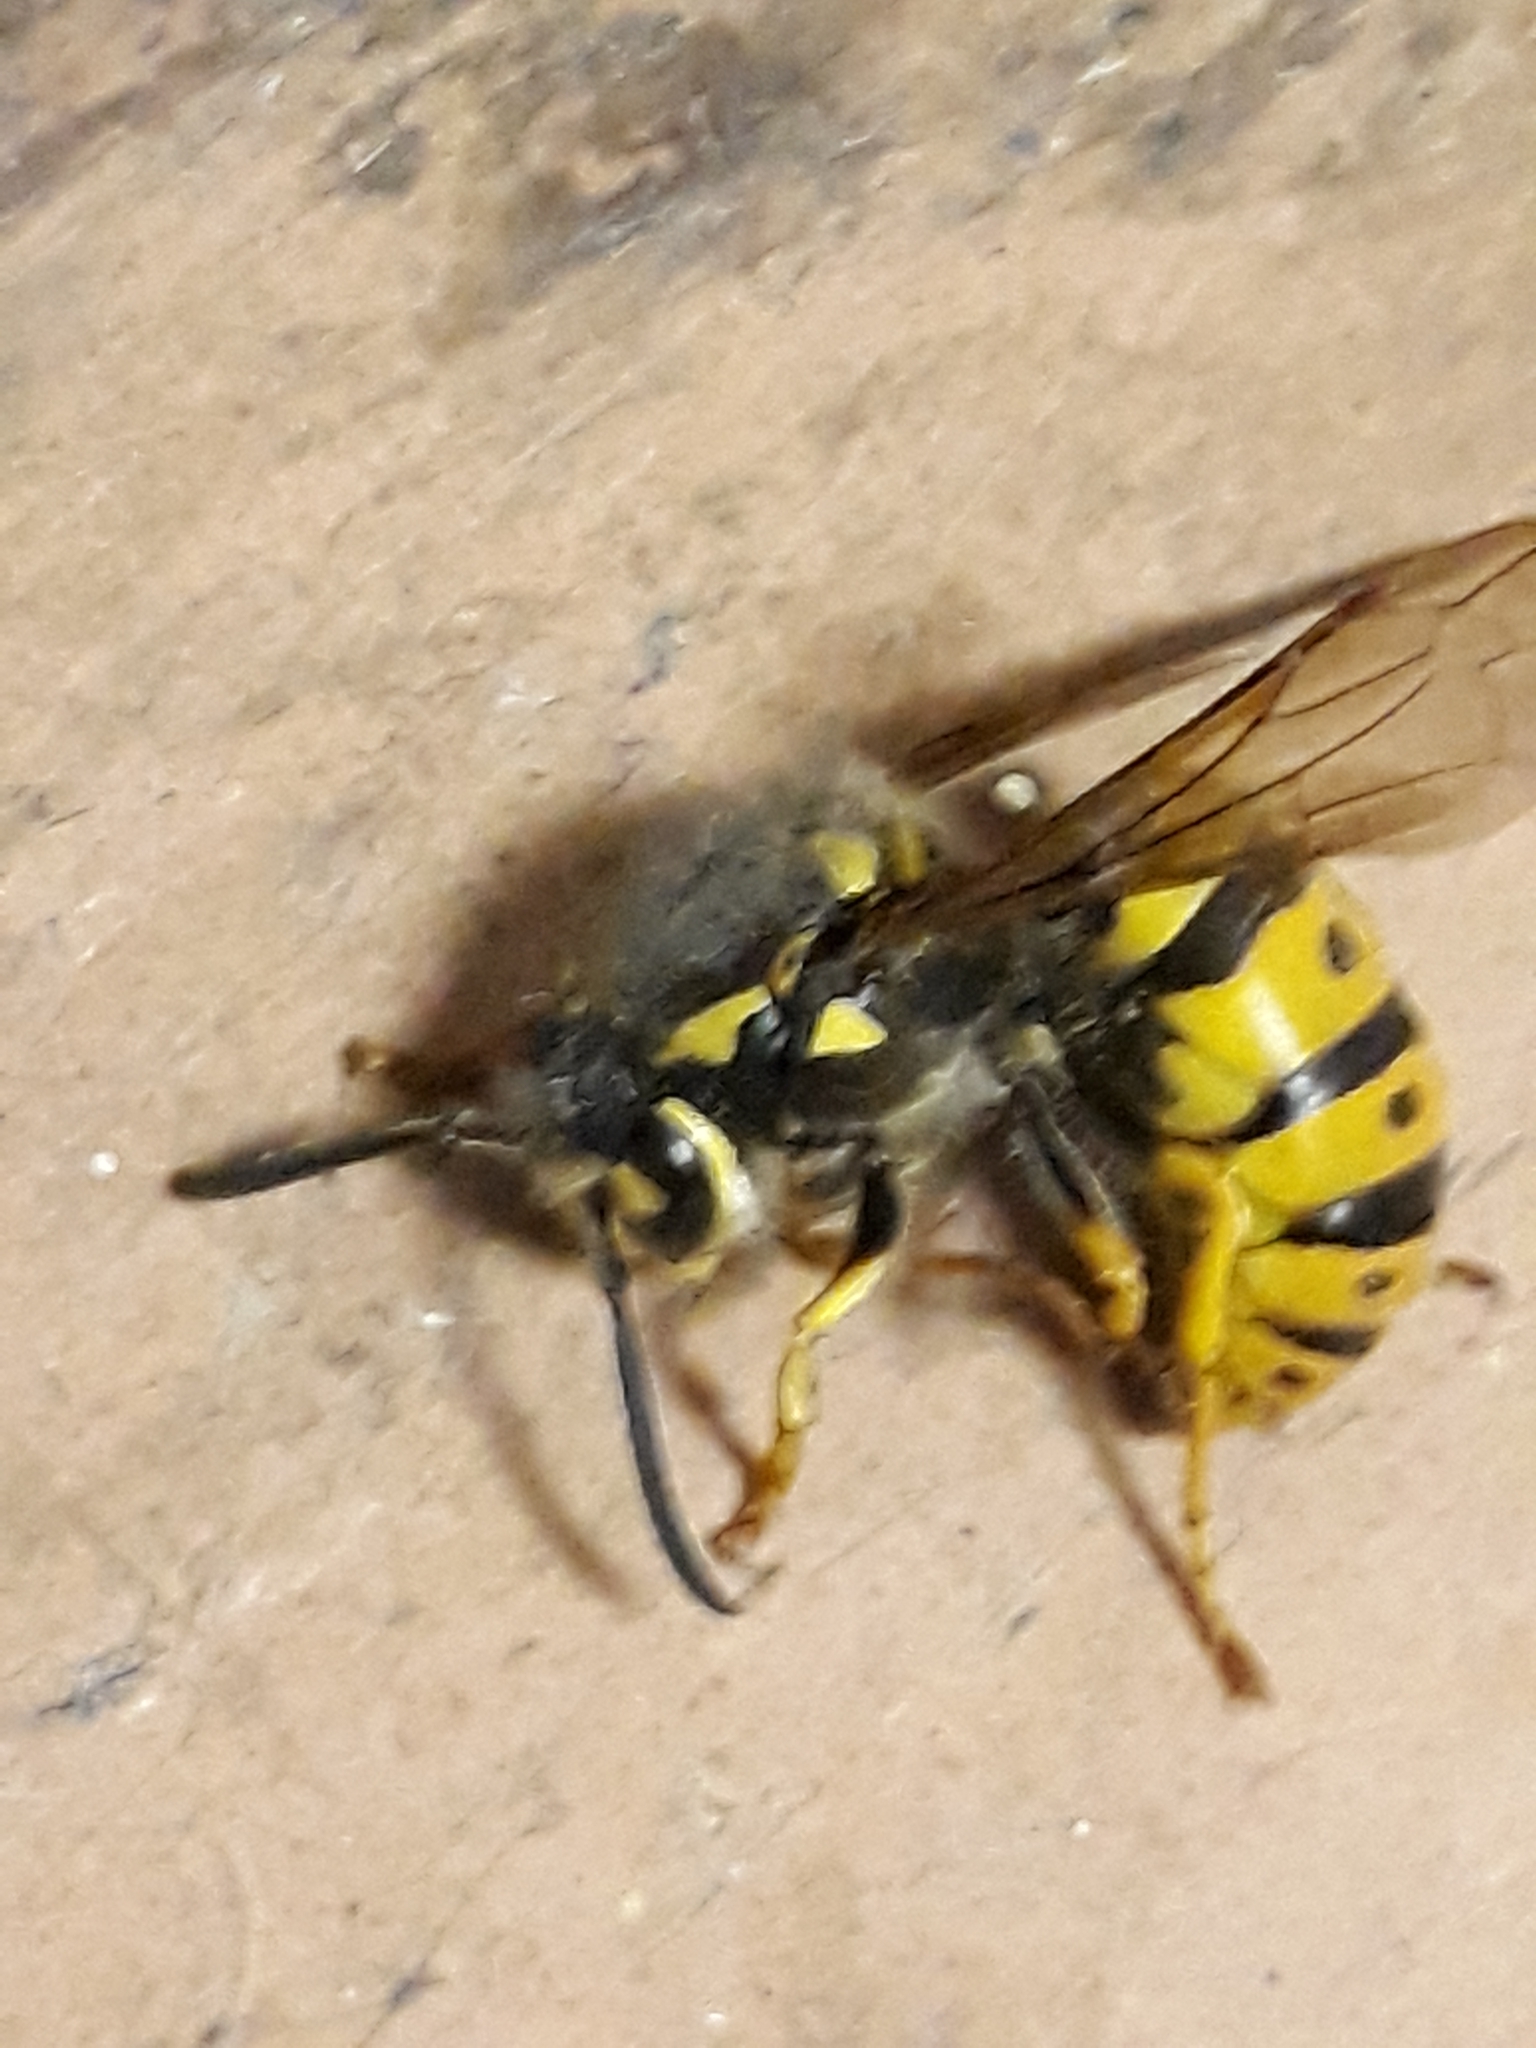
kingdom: Animalia
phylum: Arthropoda
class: Insecta
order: Hymenoptera
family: Vespidae
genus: Vespula
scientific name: Vespula germanica
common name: German wasp
